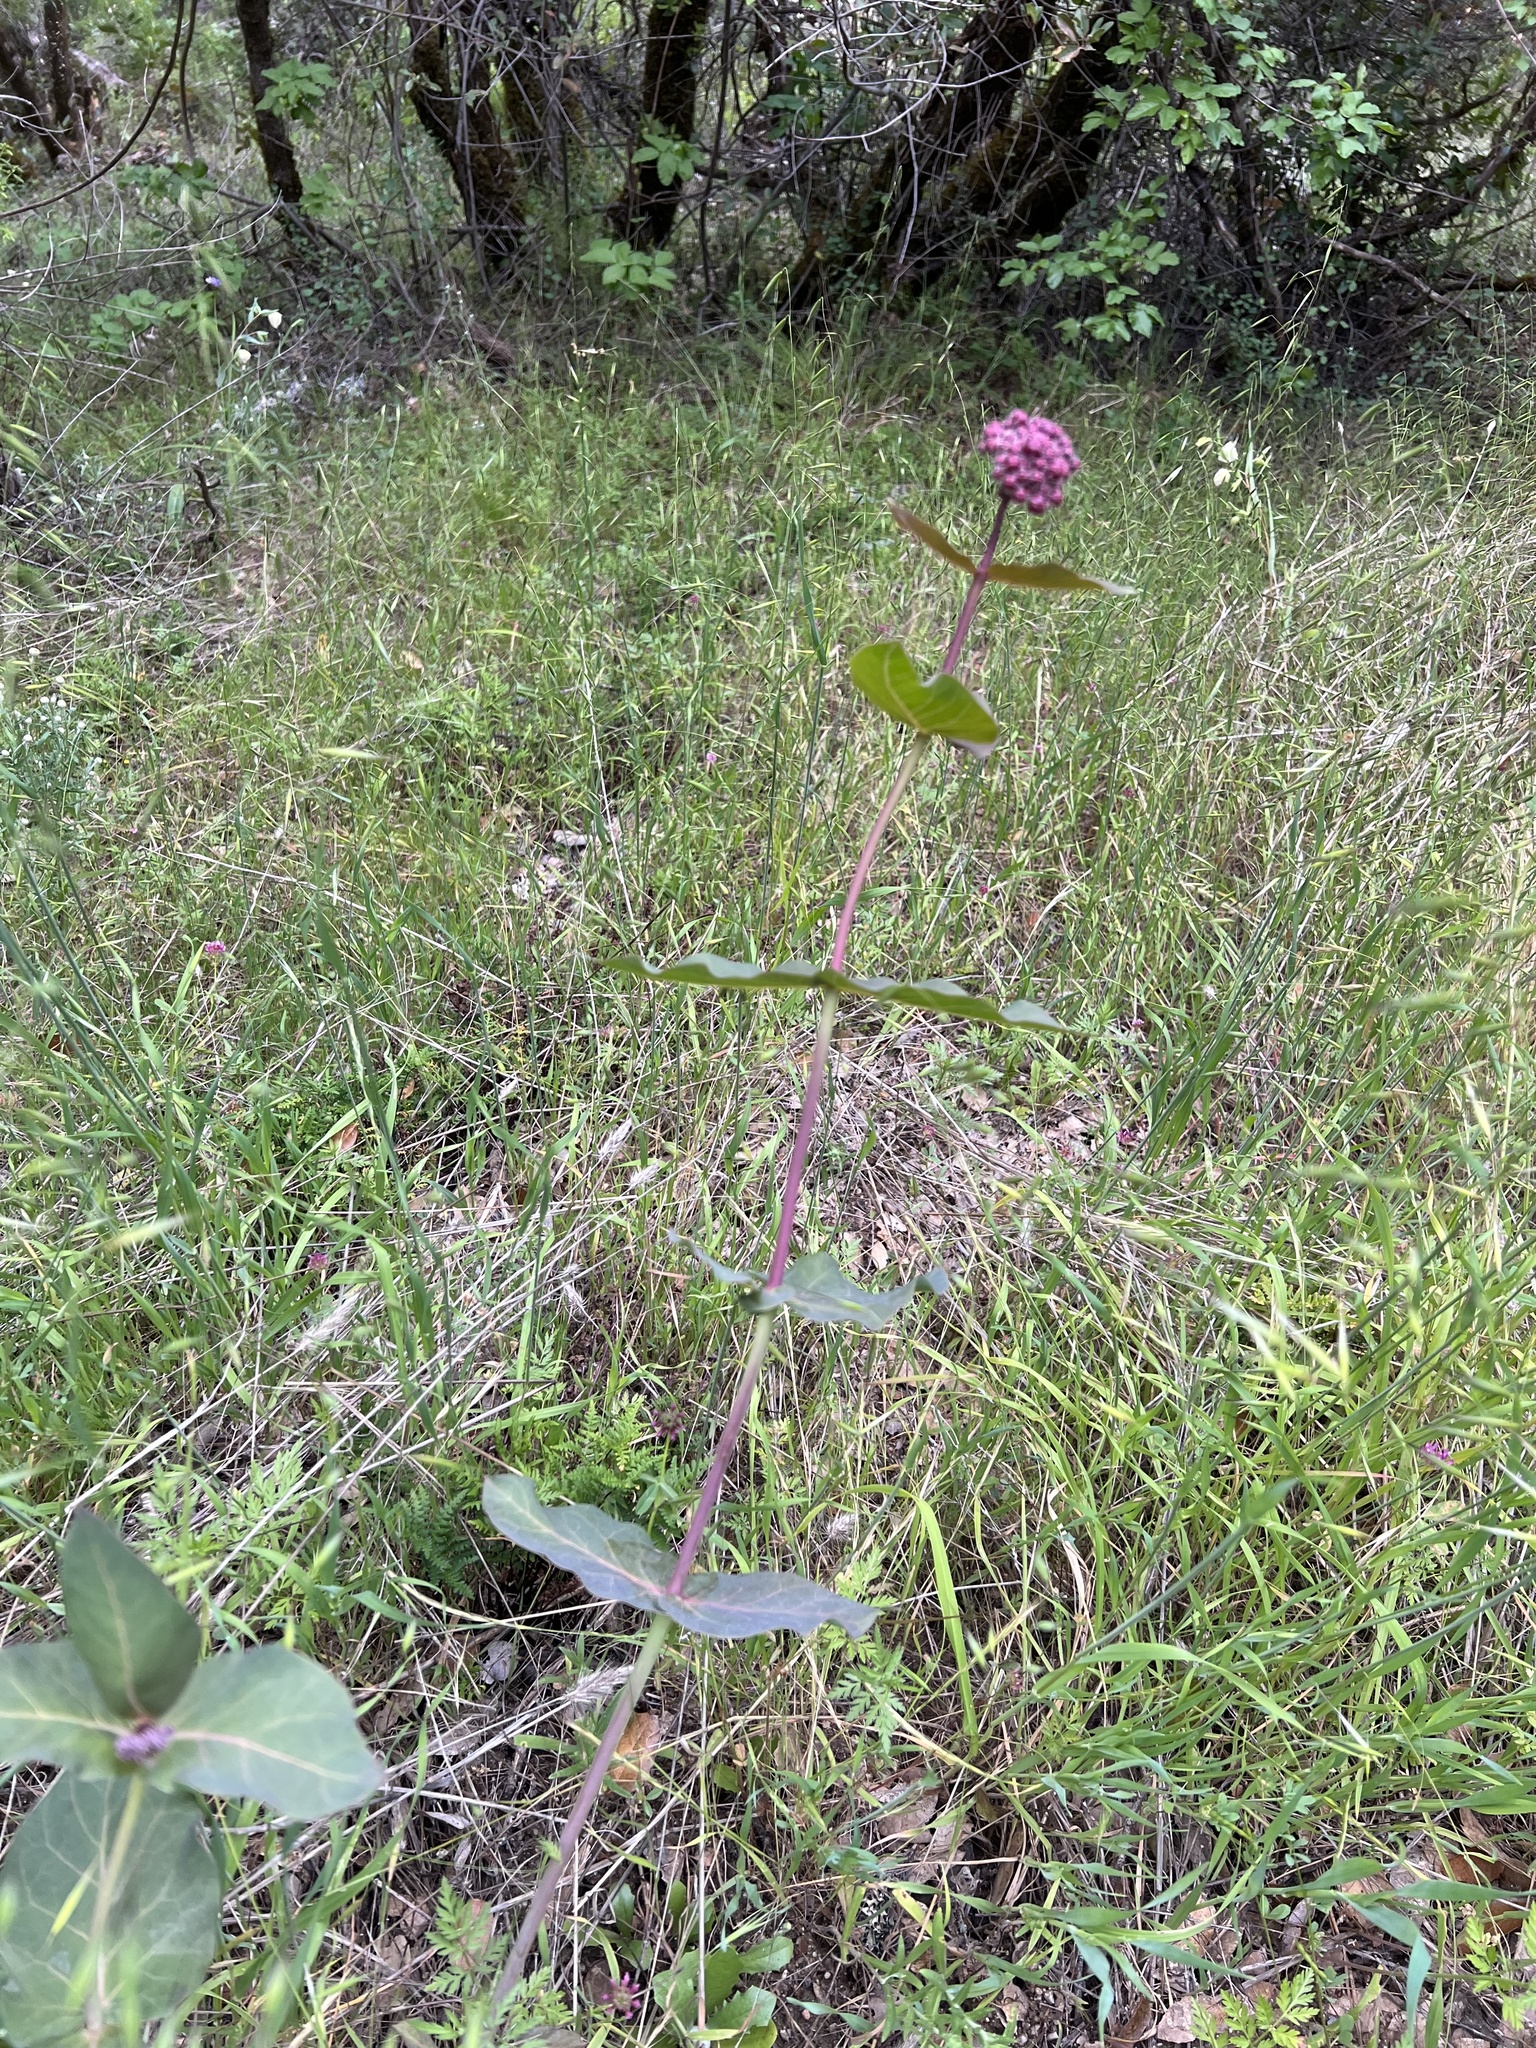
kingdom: Plantae
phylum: Tracheophyta
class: Magnoliopsida
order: Gentianales
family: Apocynaceae
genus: Asclepias
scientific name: Asclepias cordifolia
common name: Purple milkweed
